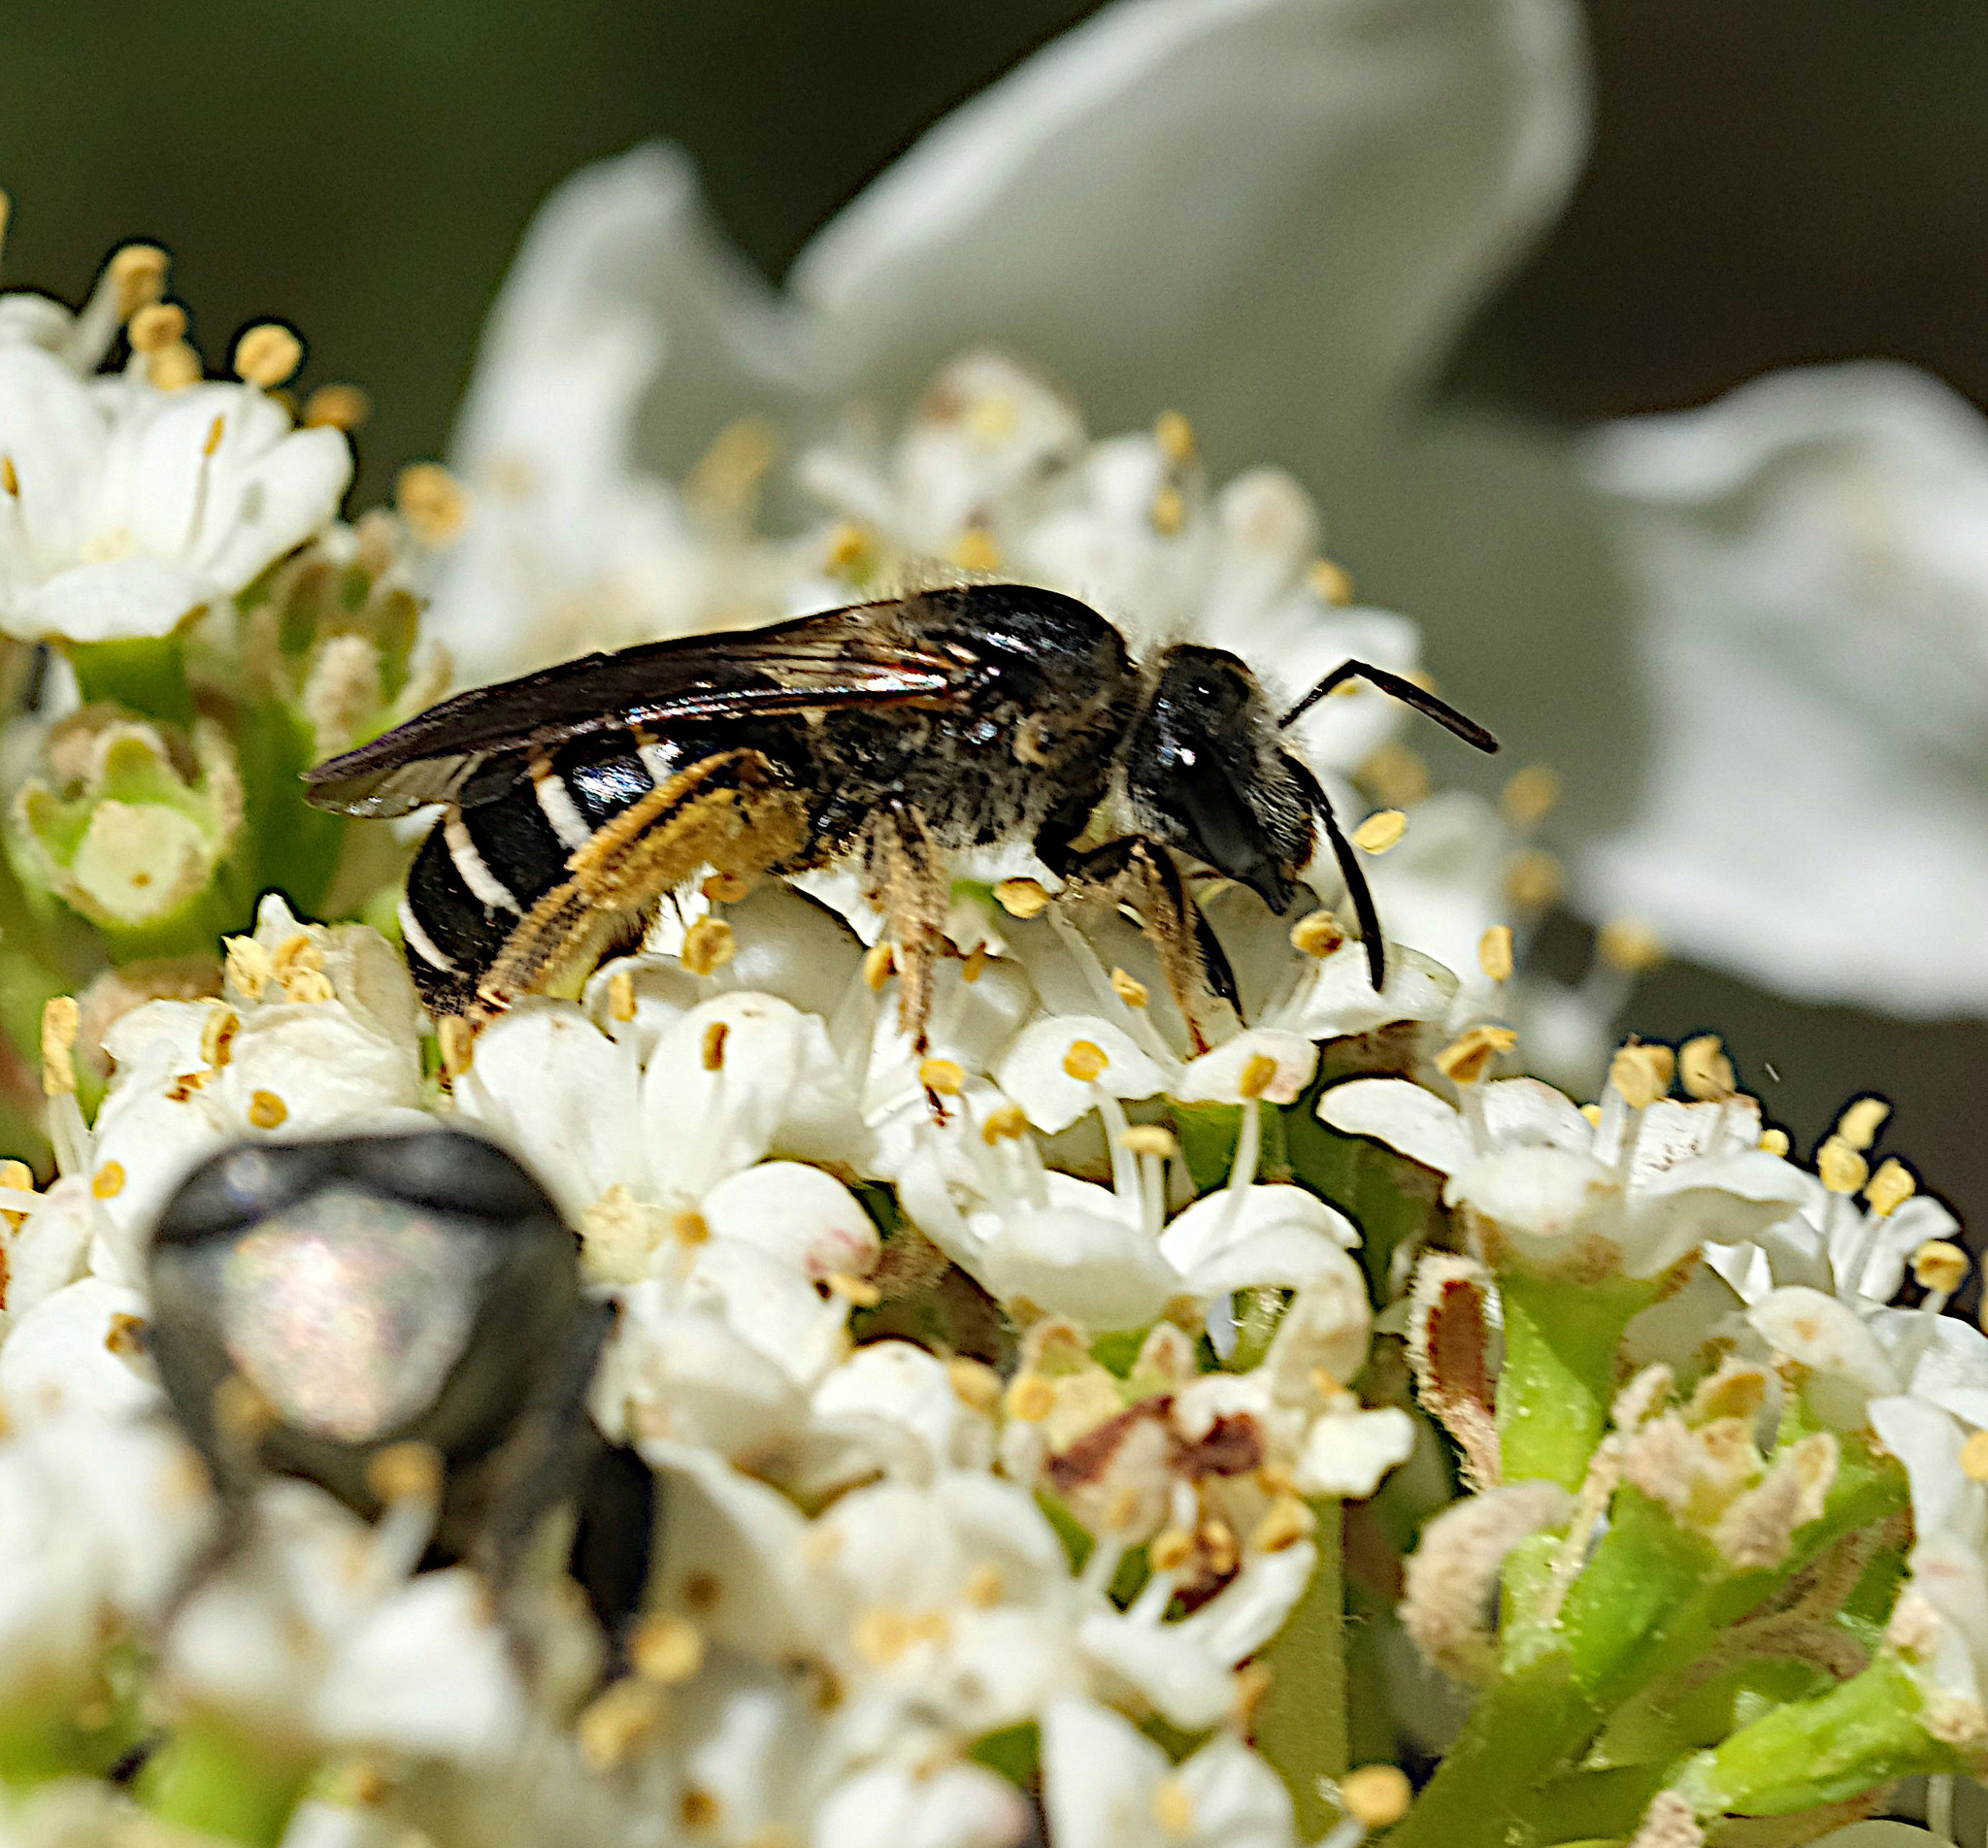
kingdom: Animalia
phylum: Arthropoda
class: Insecta
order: Hymenoptera
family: Halictidae
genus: Halictus
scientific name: Halictus rubicundus
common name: Orange-legged furrow bee
